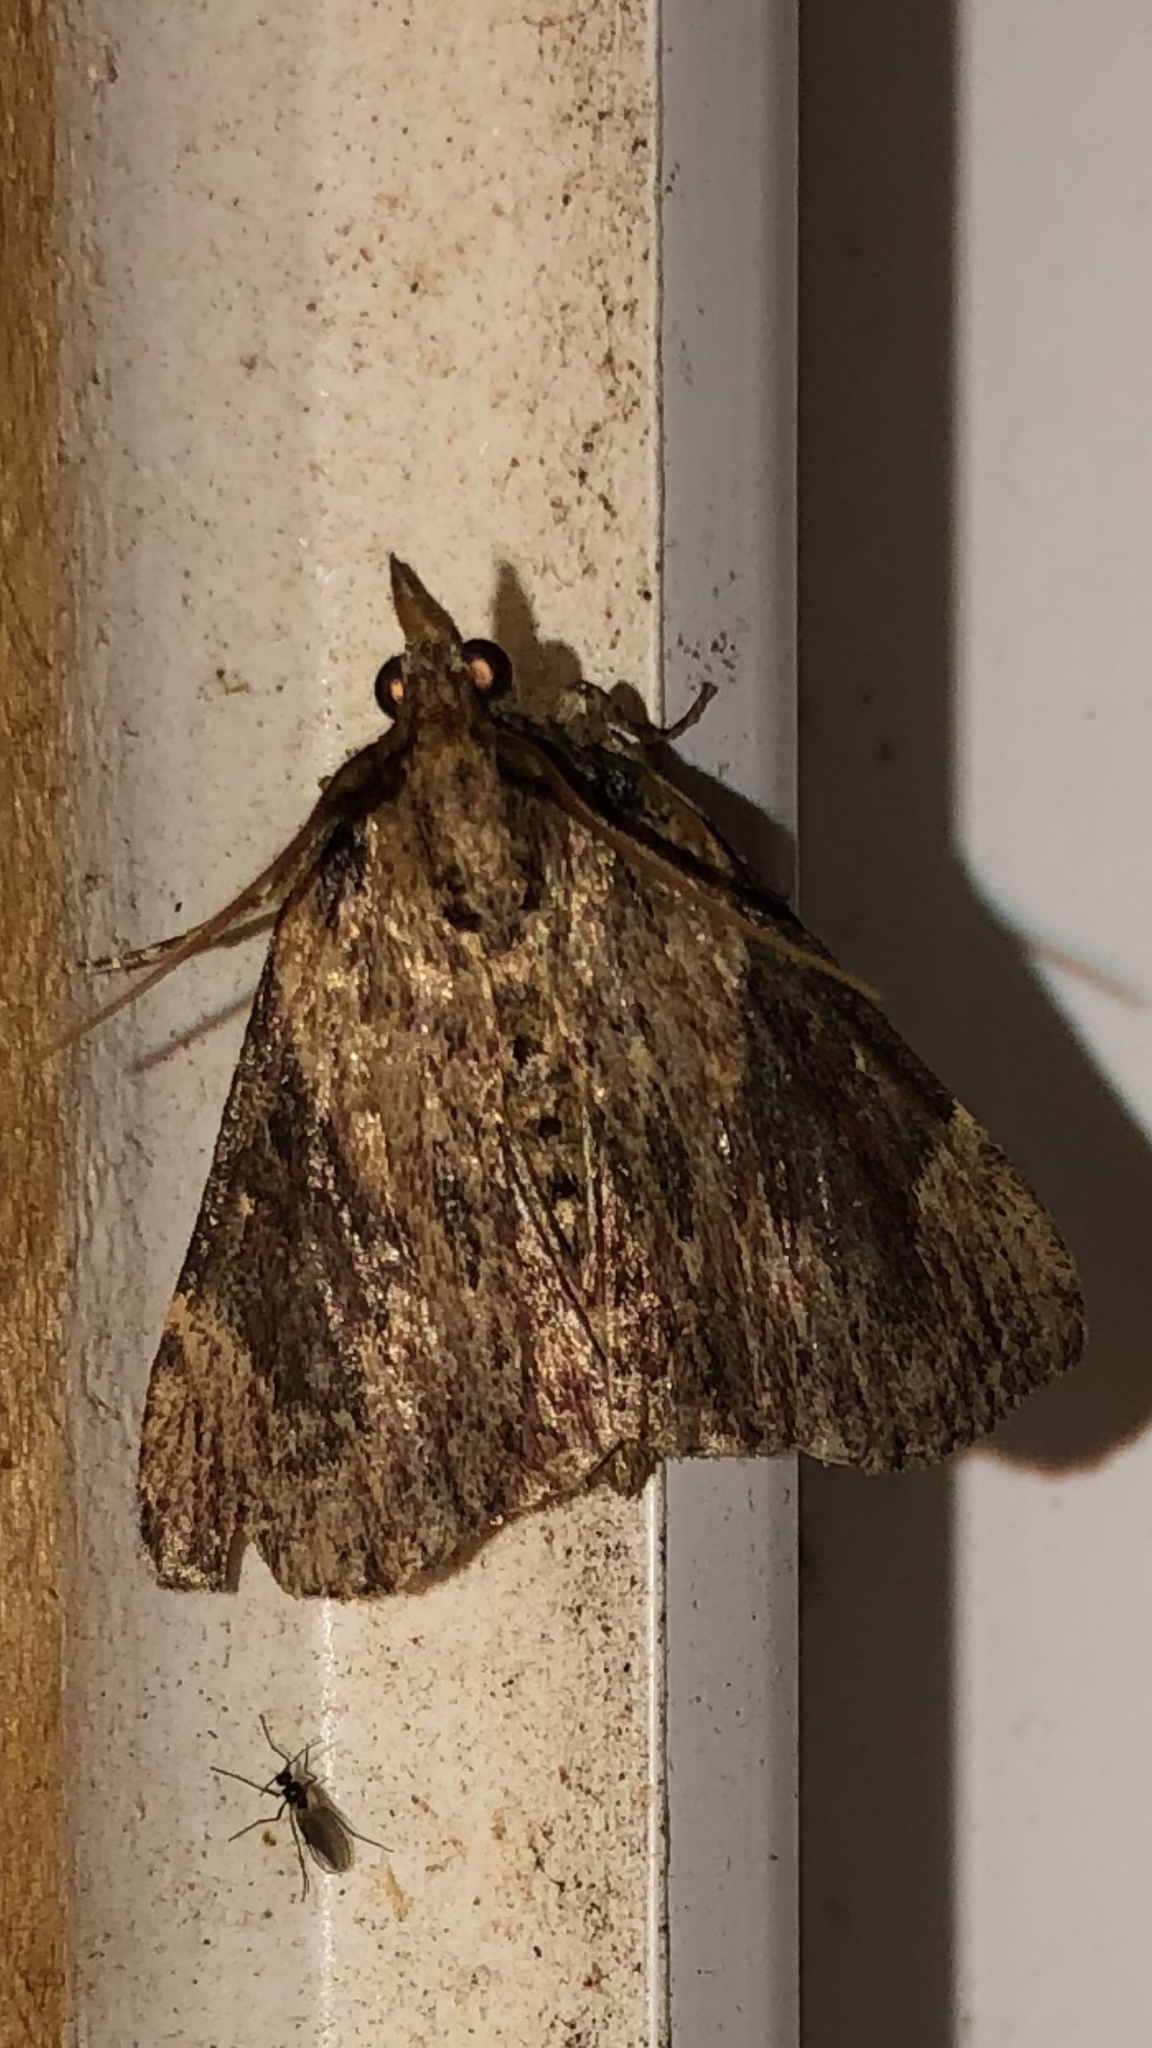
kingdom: Animalia
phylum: Arthropoda
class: Insecta
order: Lepidoptera
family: Pyralidae
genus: Omphalocera
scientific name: Omphalocera cariosa
